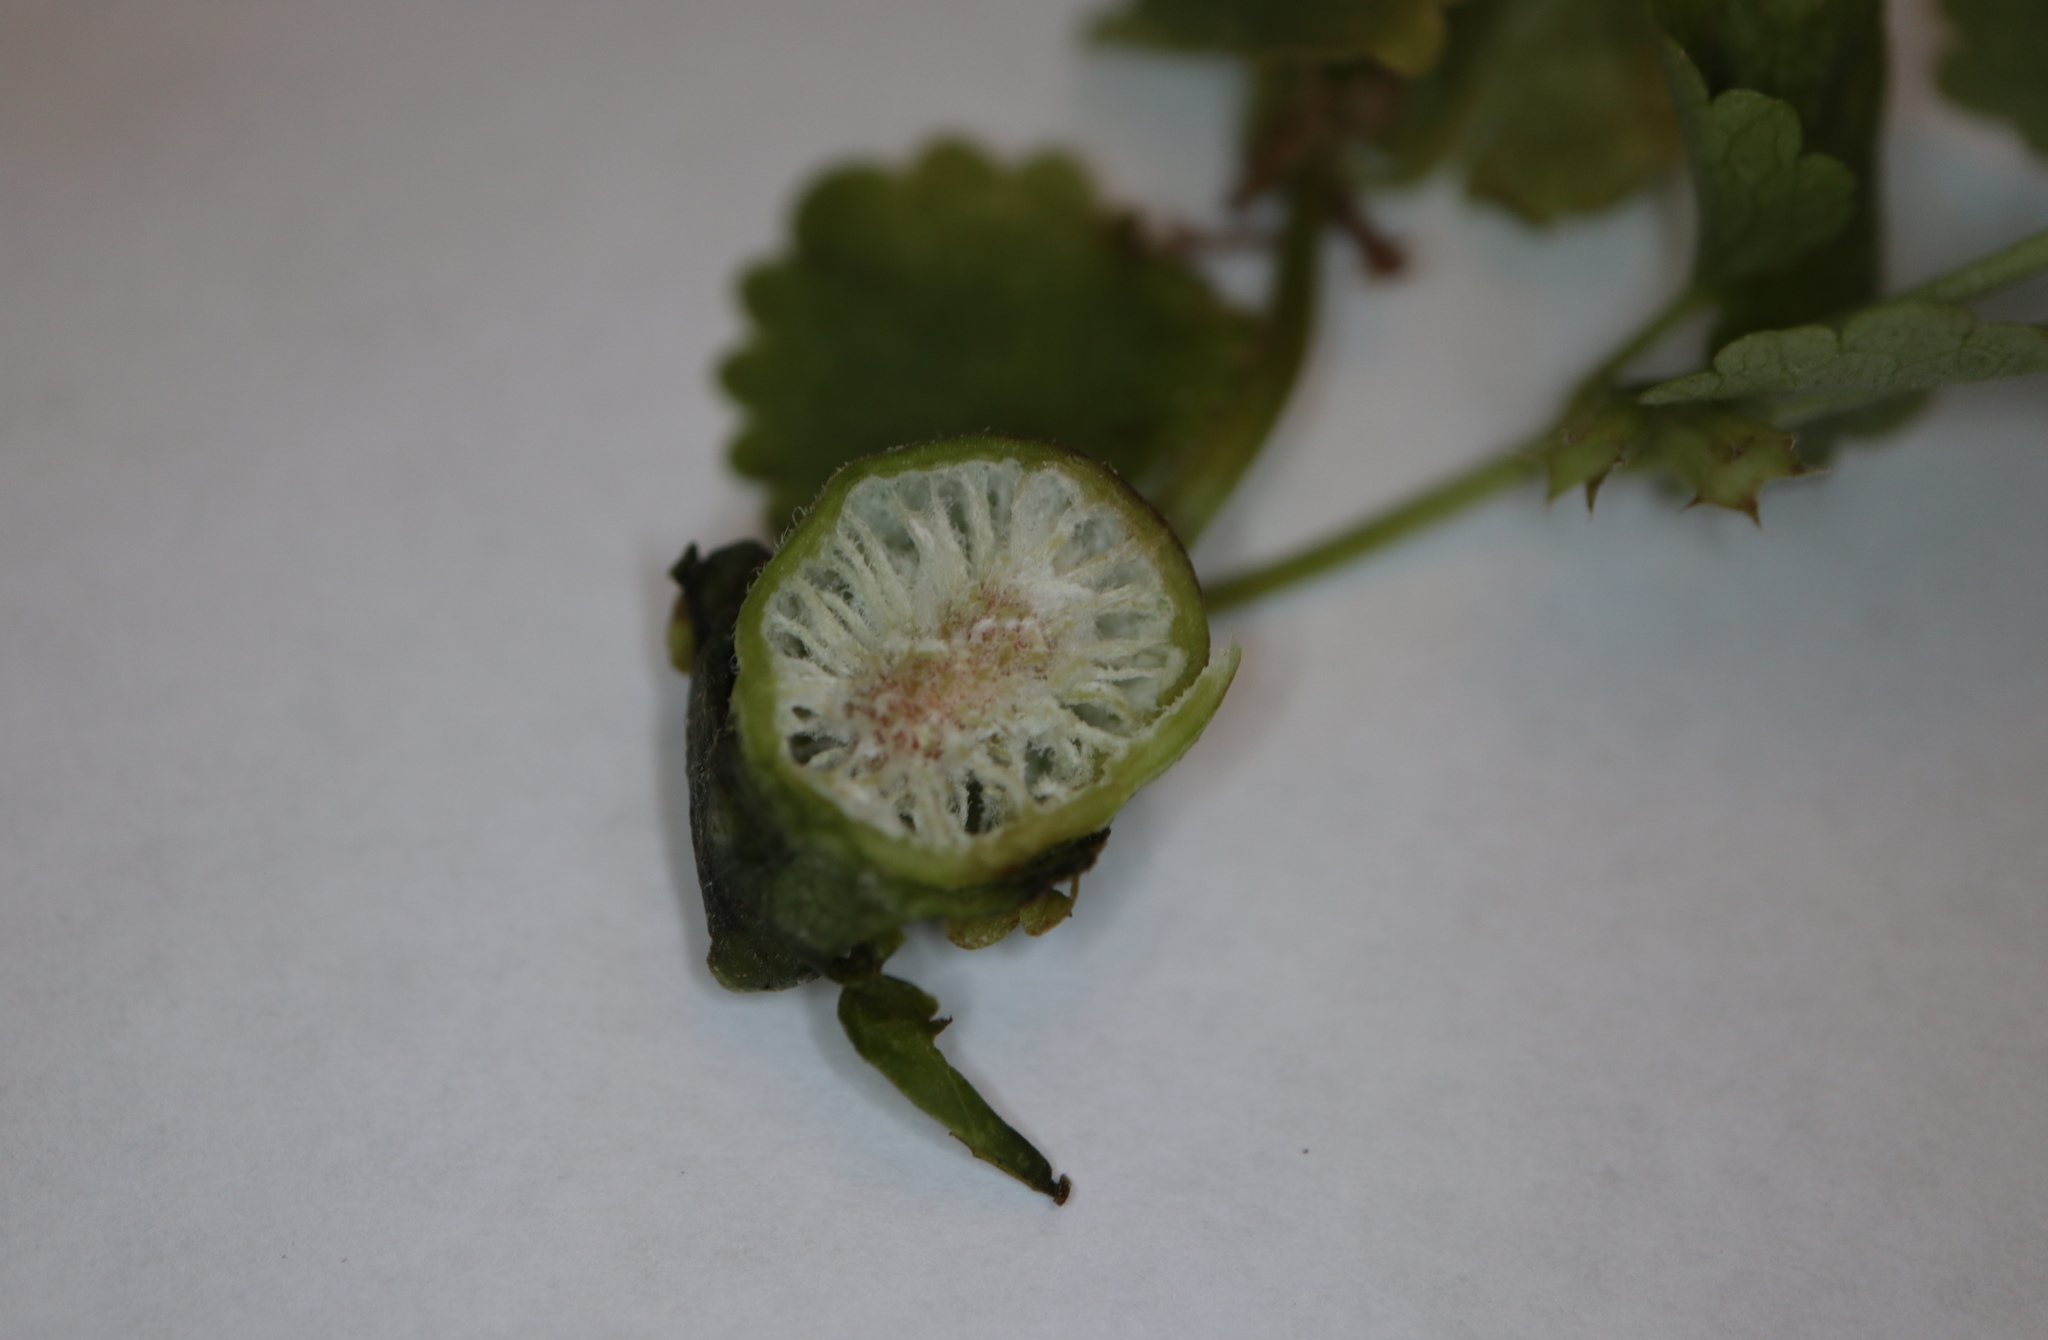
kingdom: Animalia
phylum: Arthropoda
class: Insecta
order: Hymenoptera
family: Cynipidae
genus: Liposthenes
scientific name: Liposthenes glechomae
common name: Gall wasp
